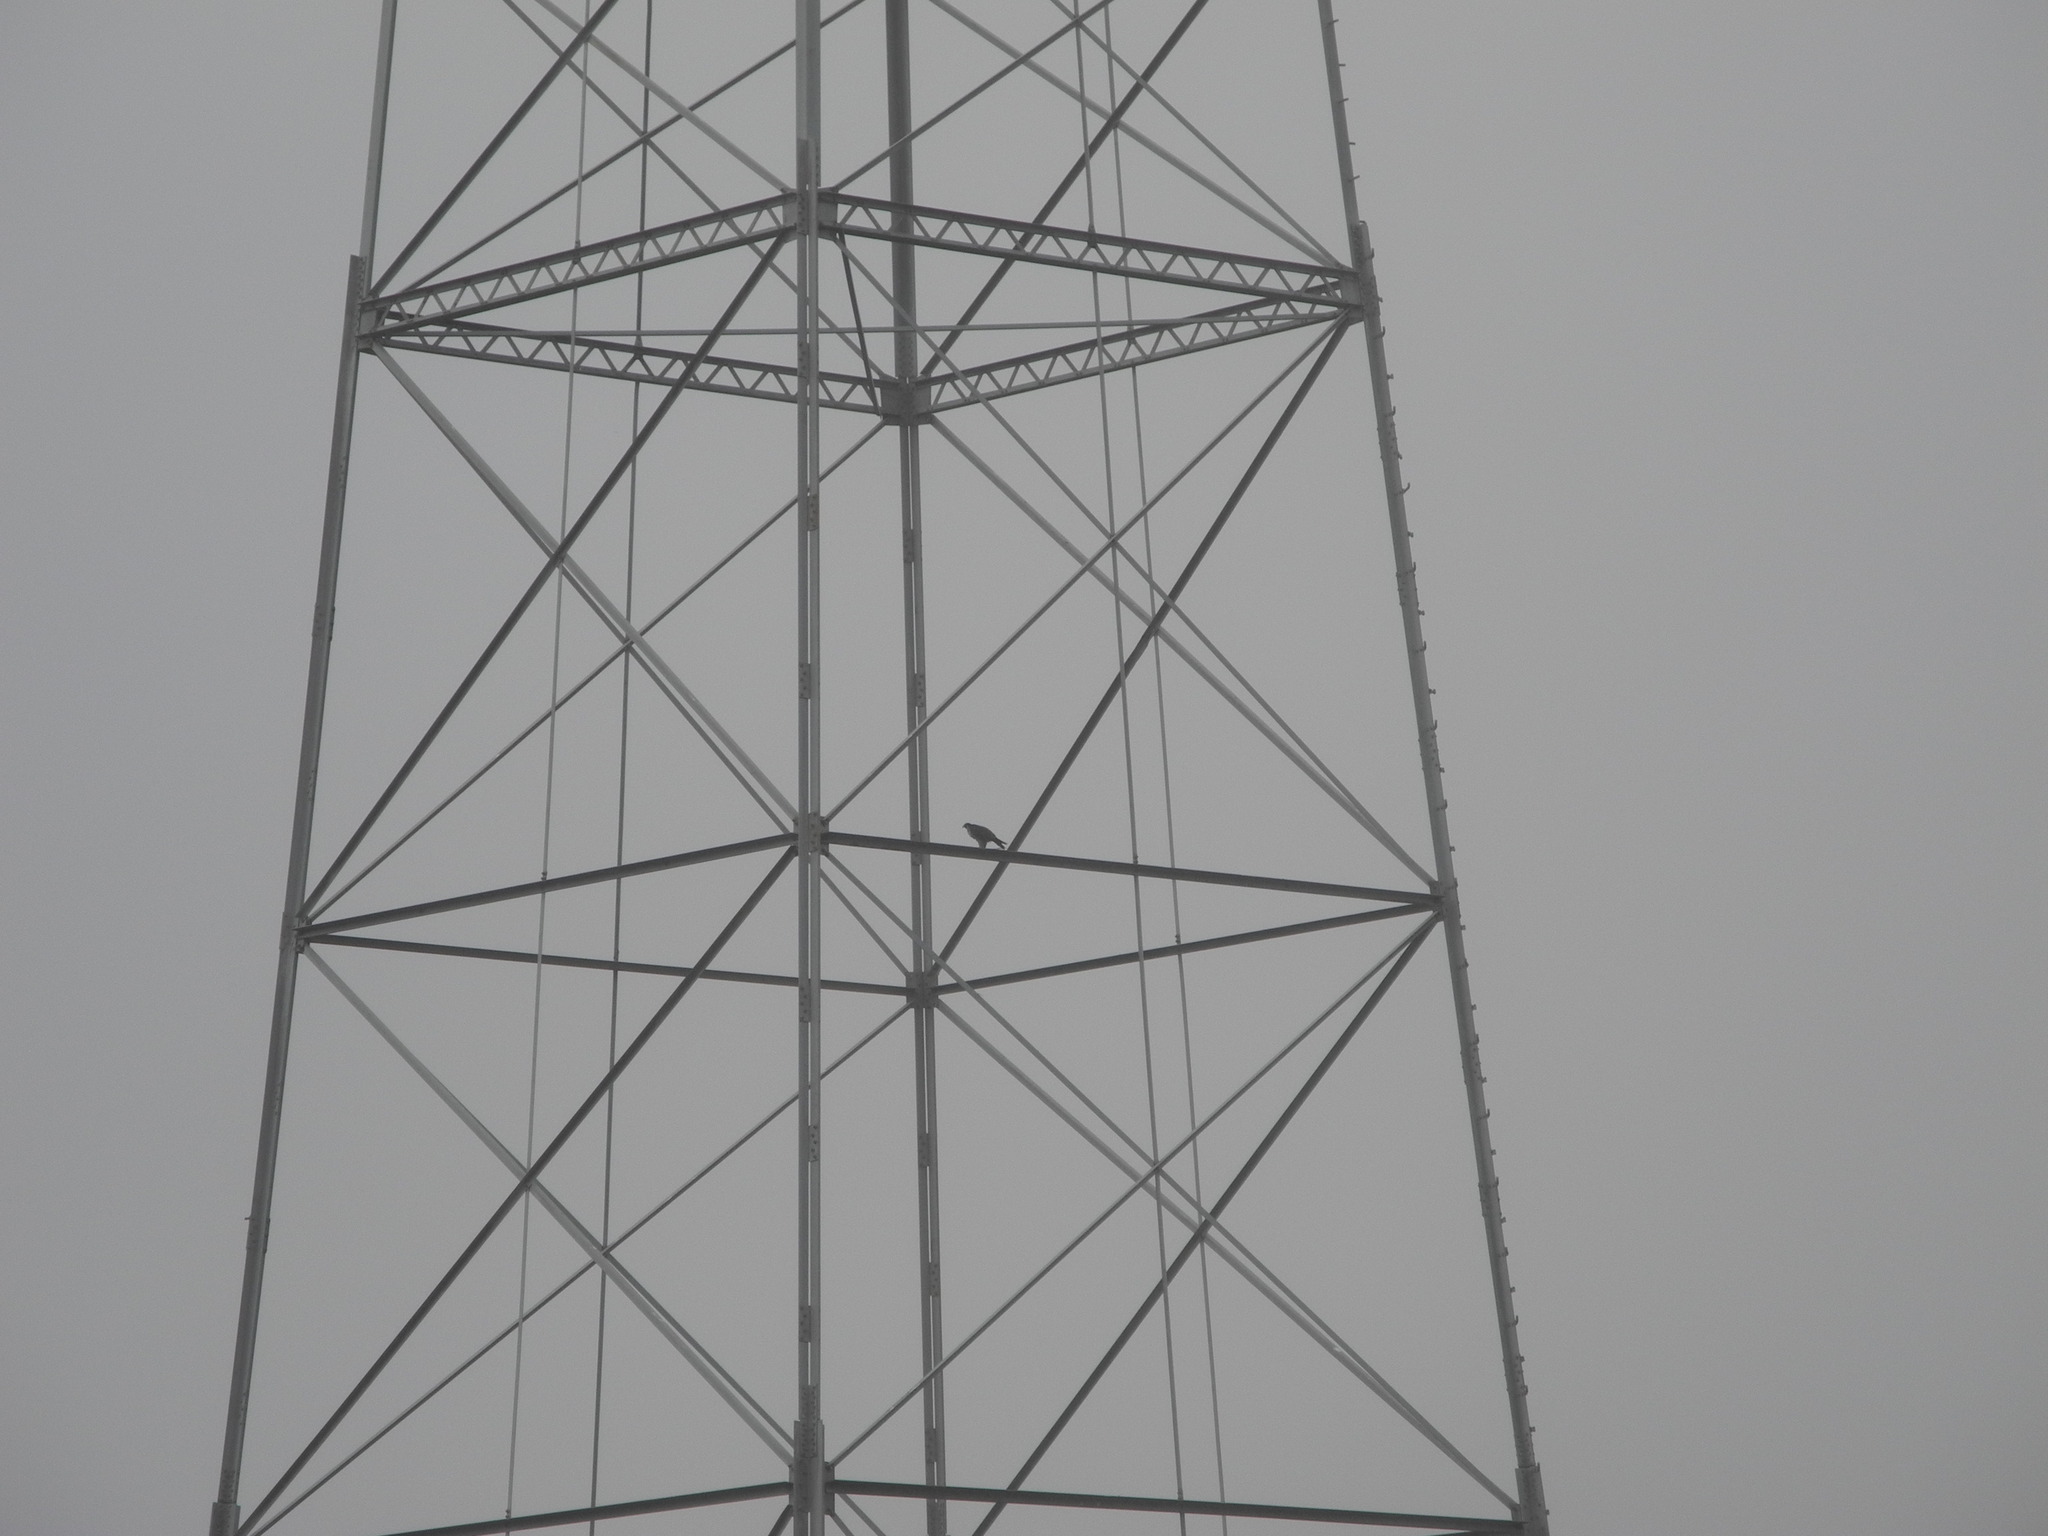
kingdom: Animalia
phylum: Chordata
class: Aves
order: Falconiformes
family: Falconidae
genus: Falco
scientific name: Falco peregrinus
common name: Peregrine falcon
